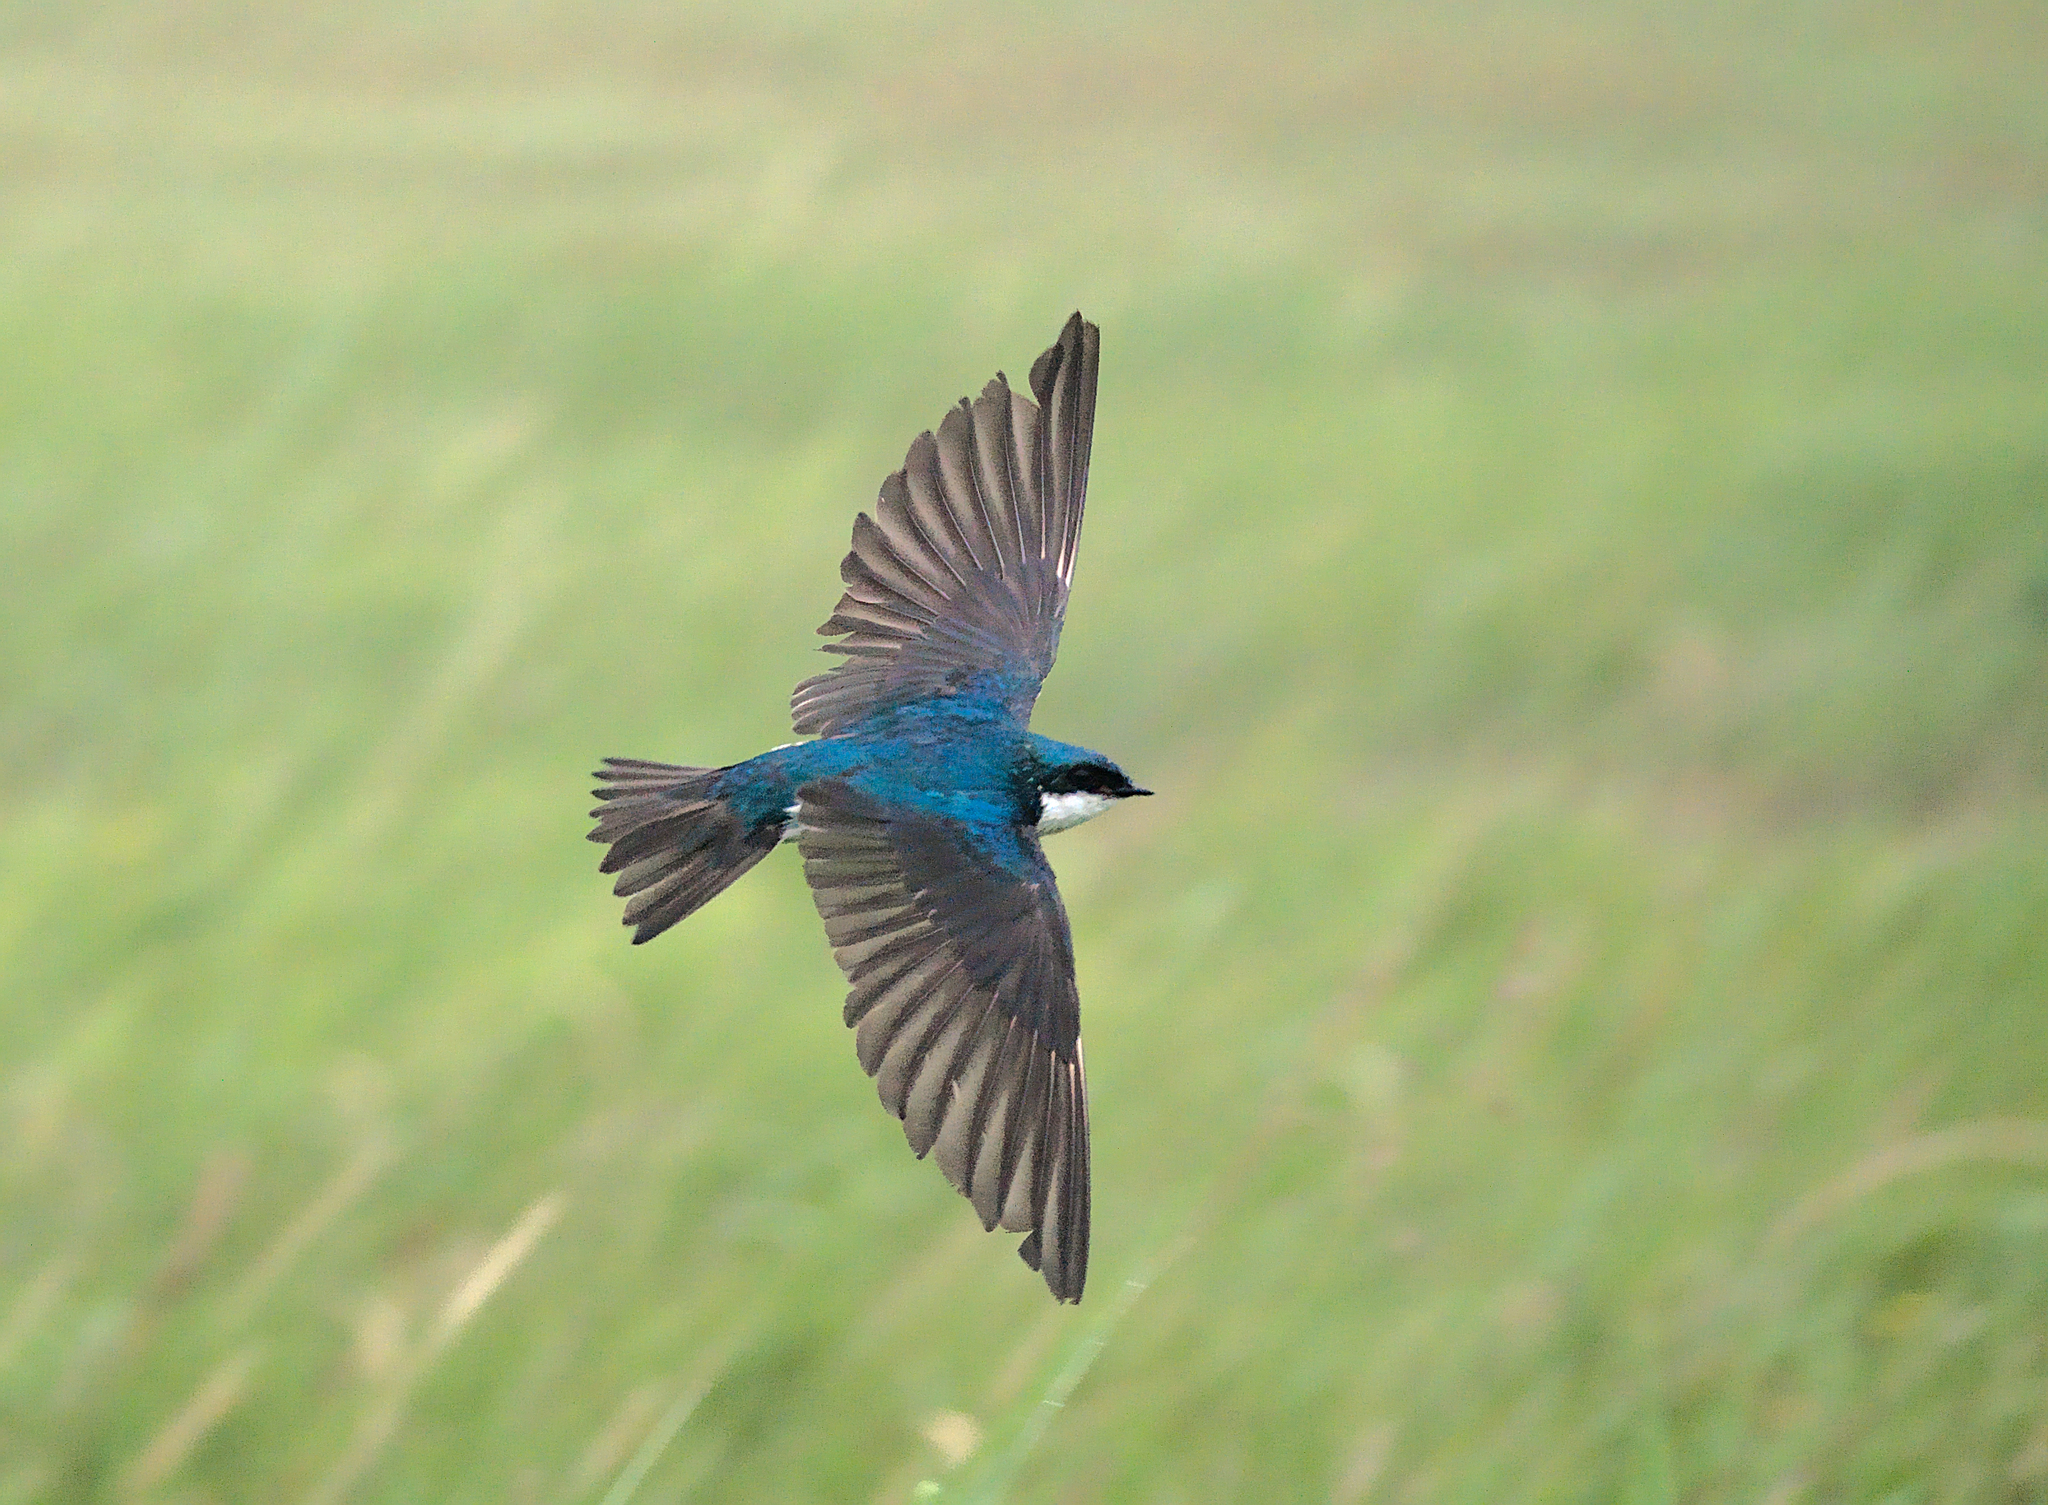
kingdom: Animalia
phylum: Chordata
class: Aves
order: Passeriformes
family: Hirundinidae
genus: Tachycineta
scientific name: Tachycineta bicolor
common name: Tree swallow
